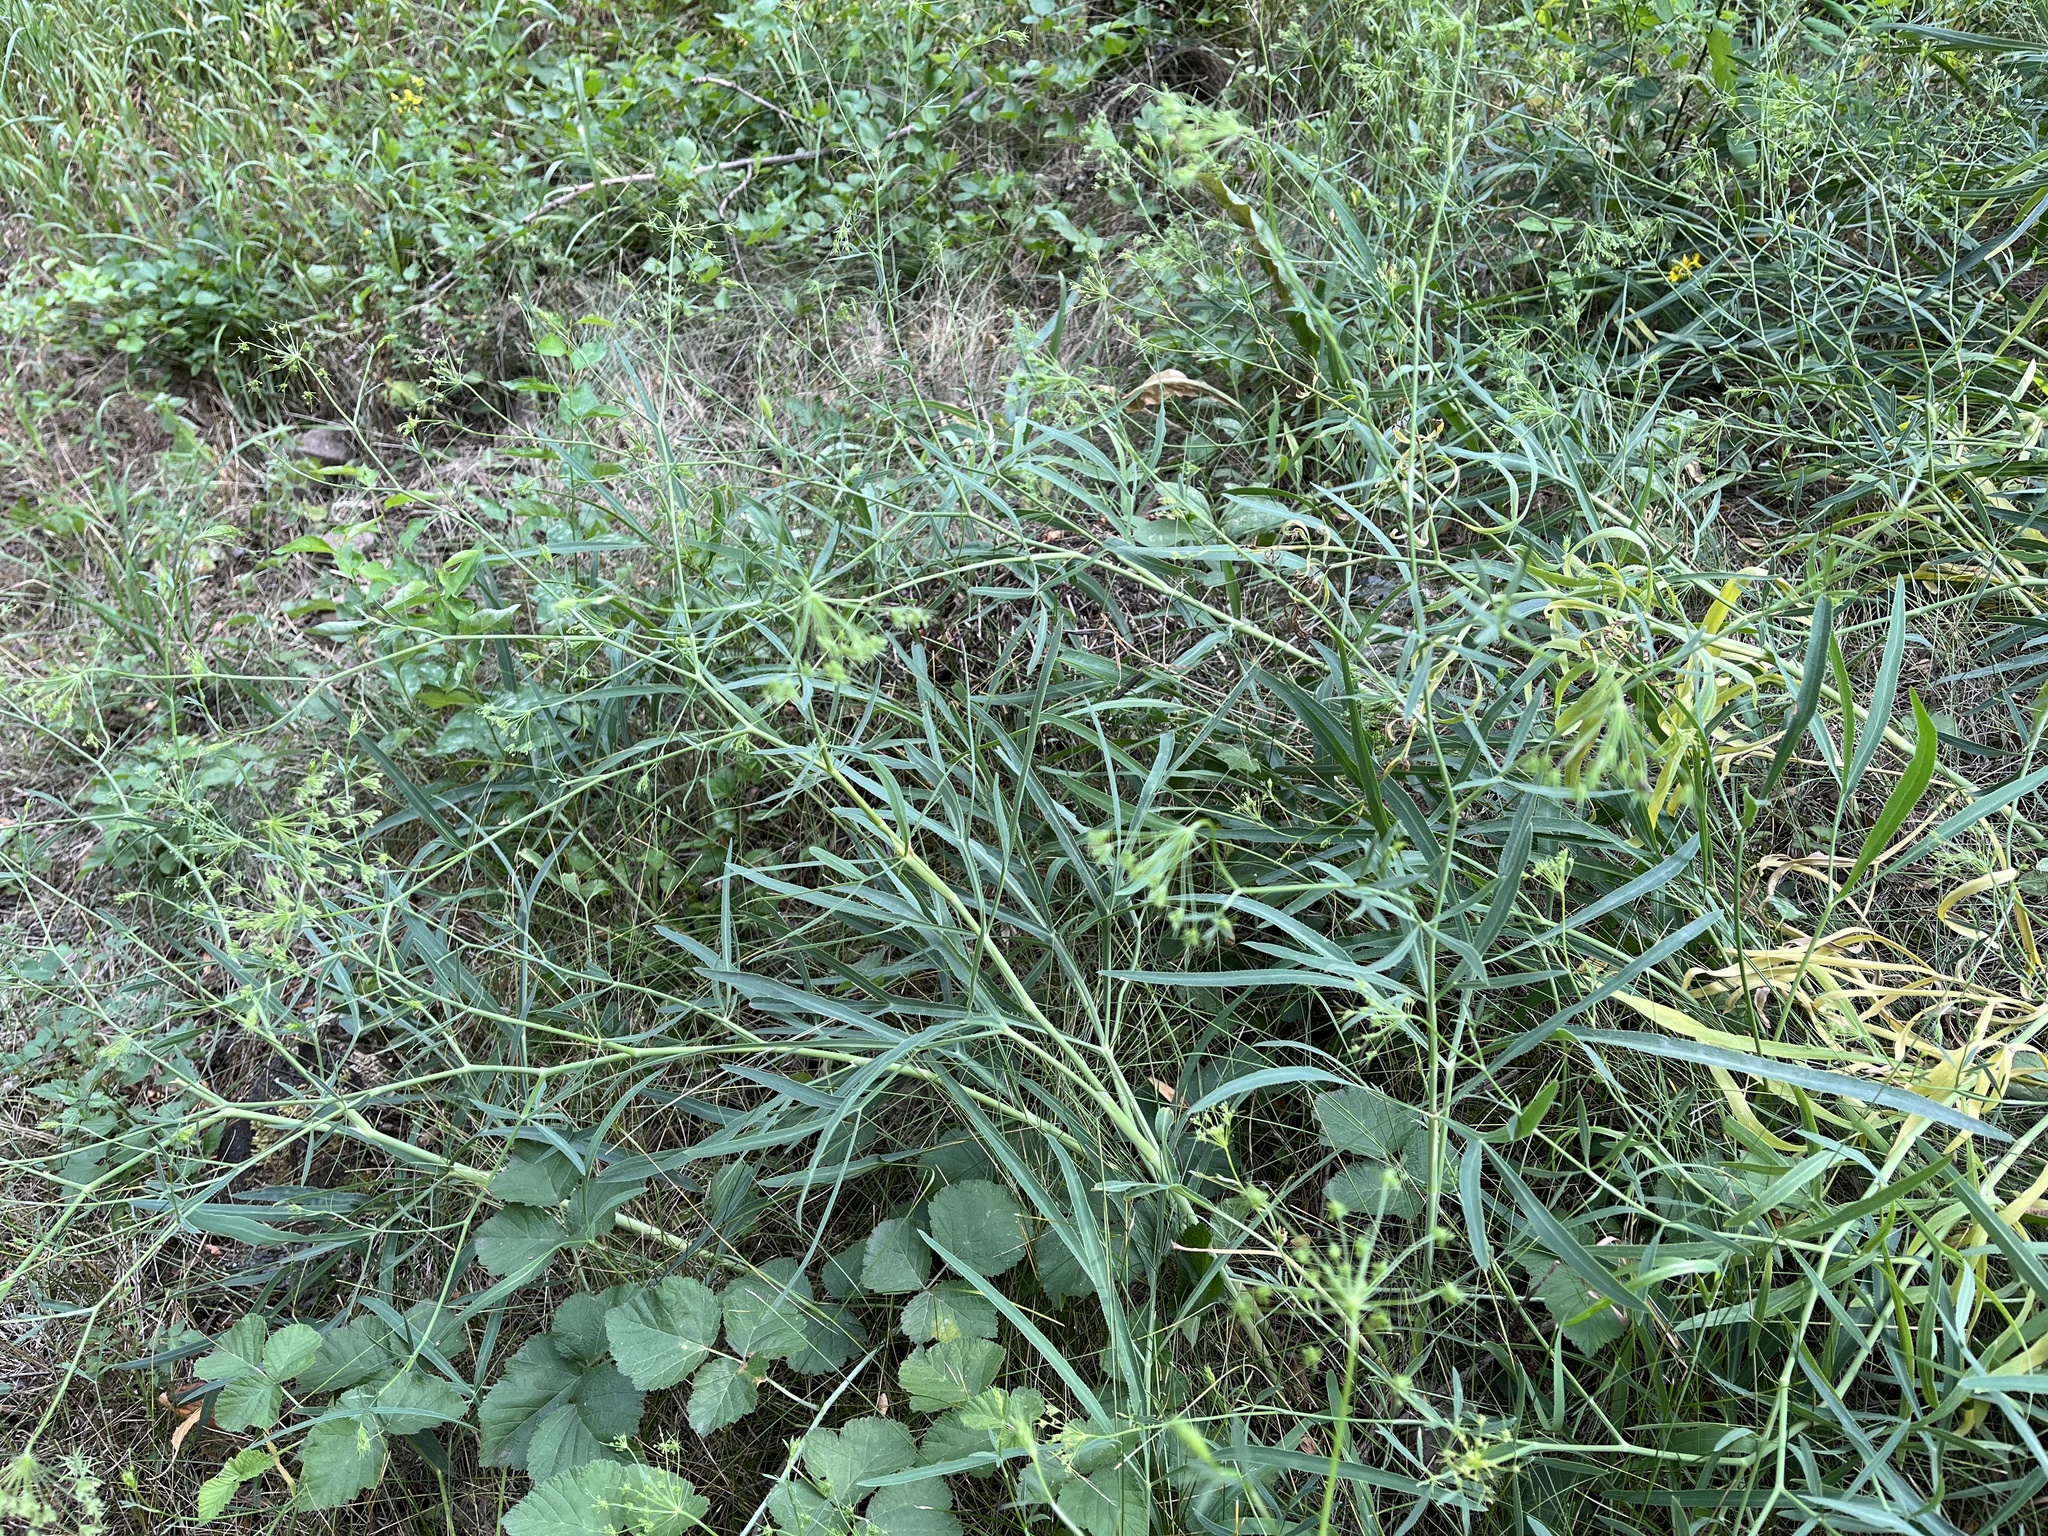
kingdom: Plantae
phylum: Tracheophyta
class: Magnoliopsida
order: Apiales
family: Apiaceae
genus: Falcaria
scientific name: Falcaria vulgaris
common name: Longleaf
